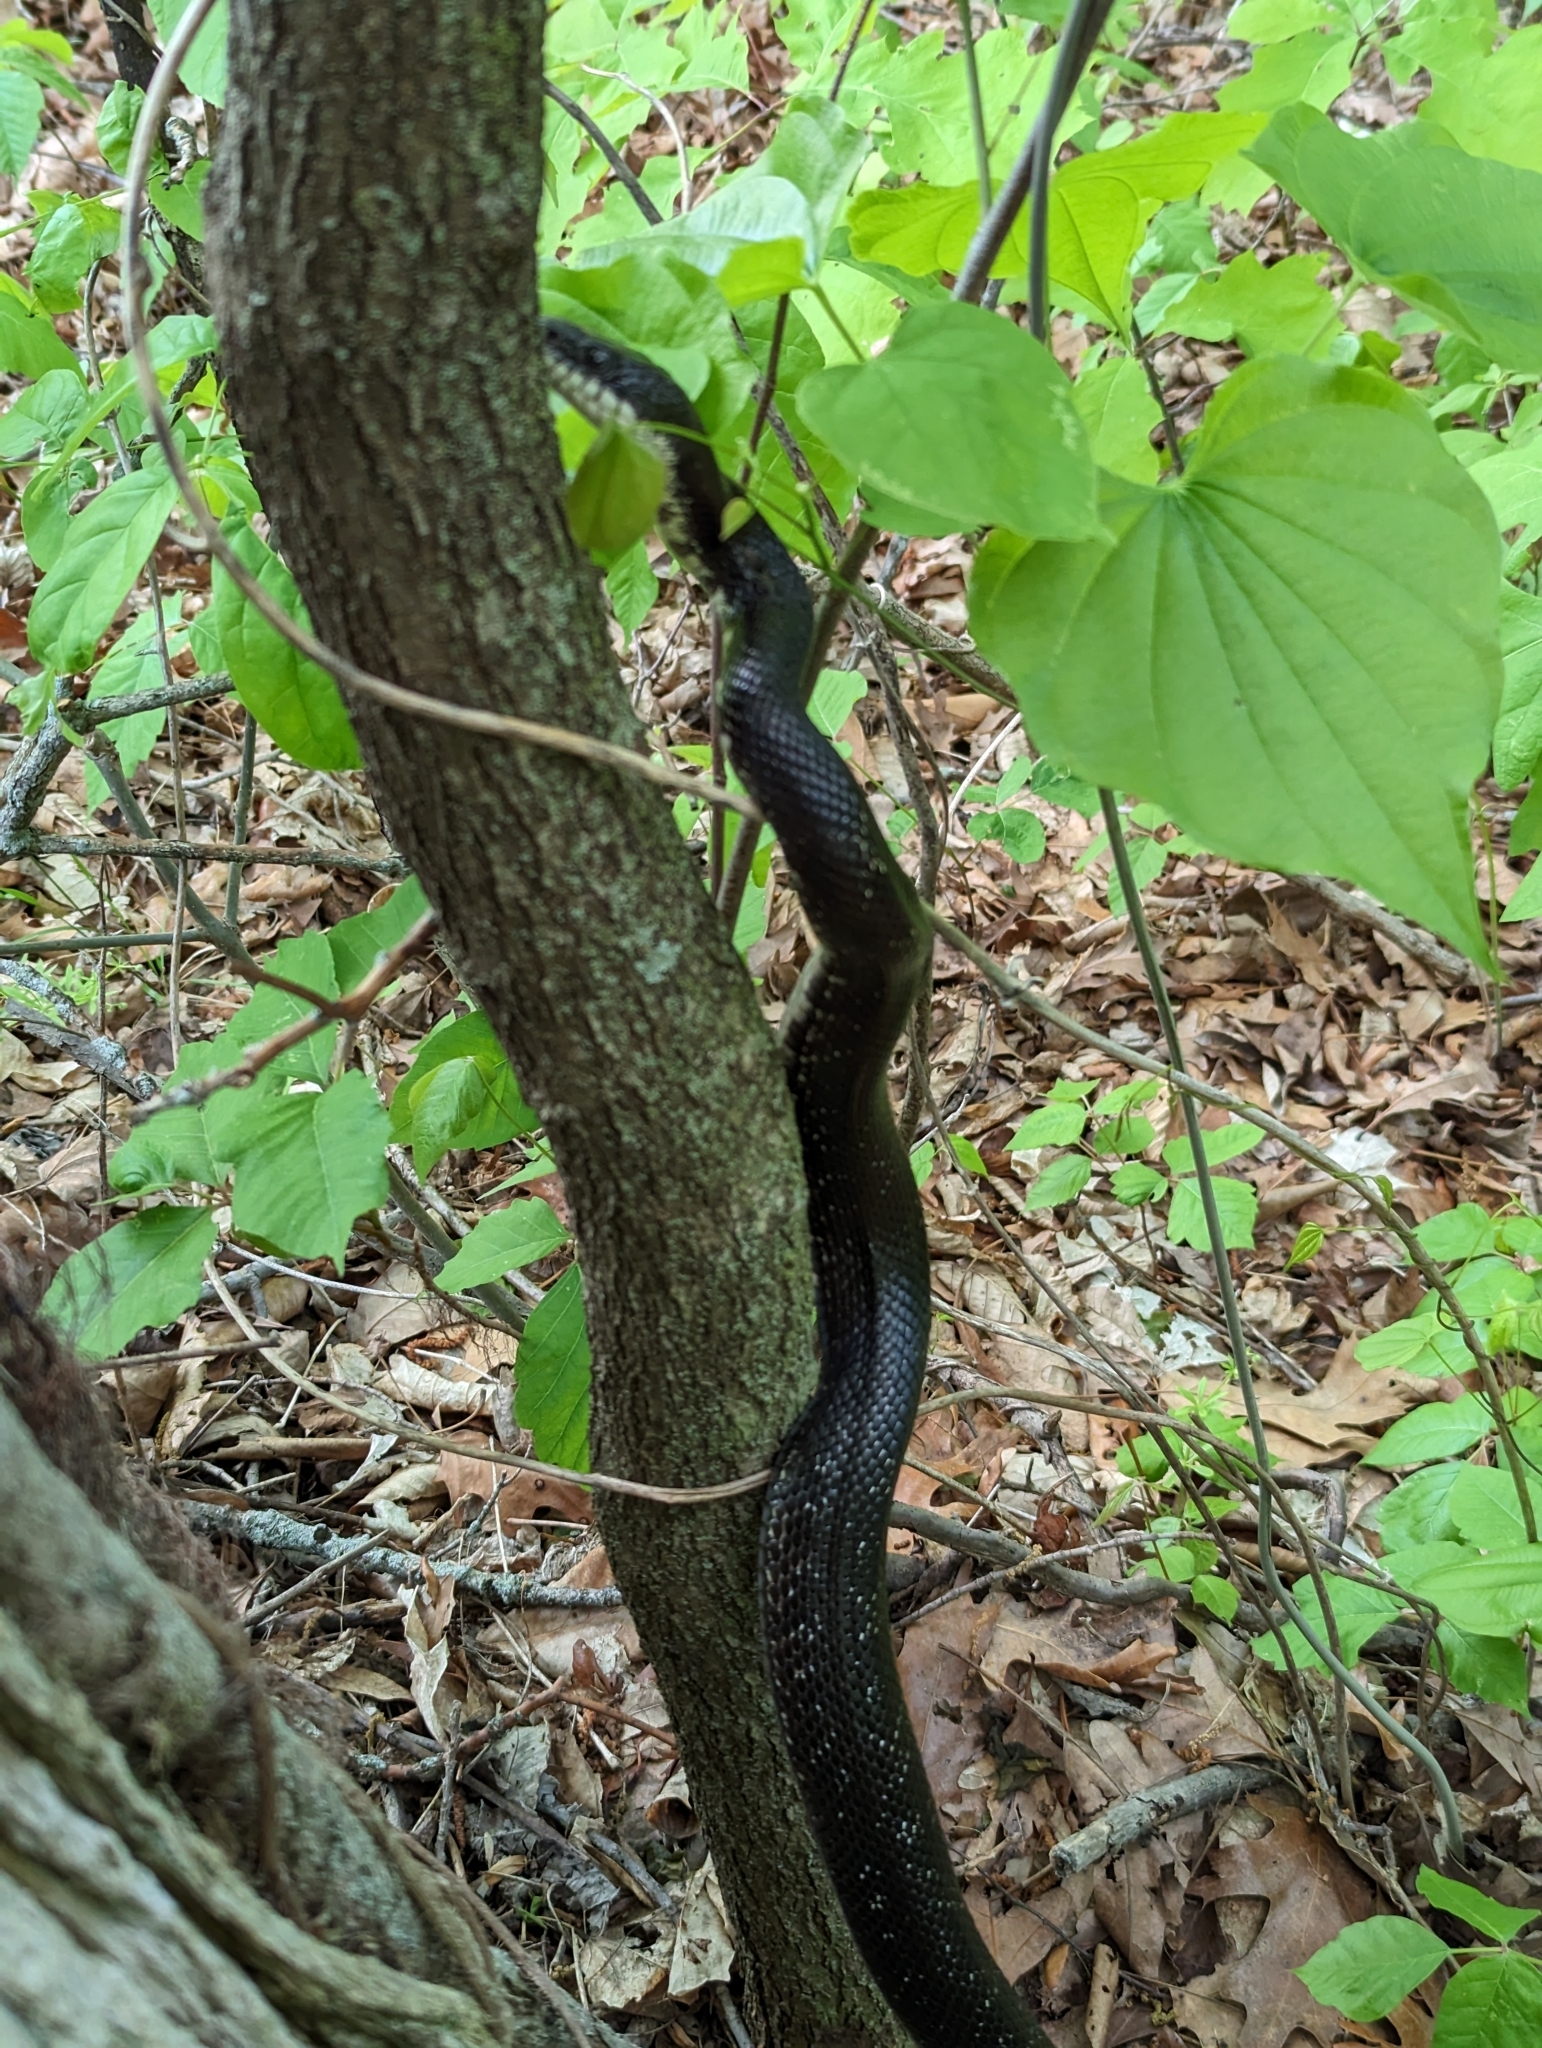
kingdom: Animalia
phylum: Chordata
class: Squamata
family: Colubridae
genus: Pantherophis
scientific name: Pantherophis spiloides
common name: Gray rat snake
